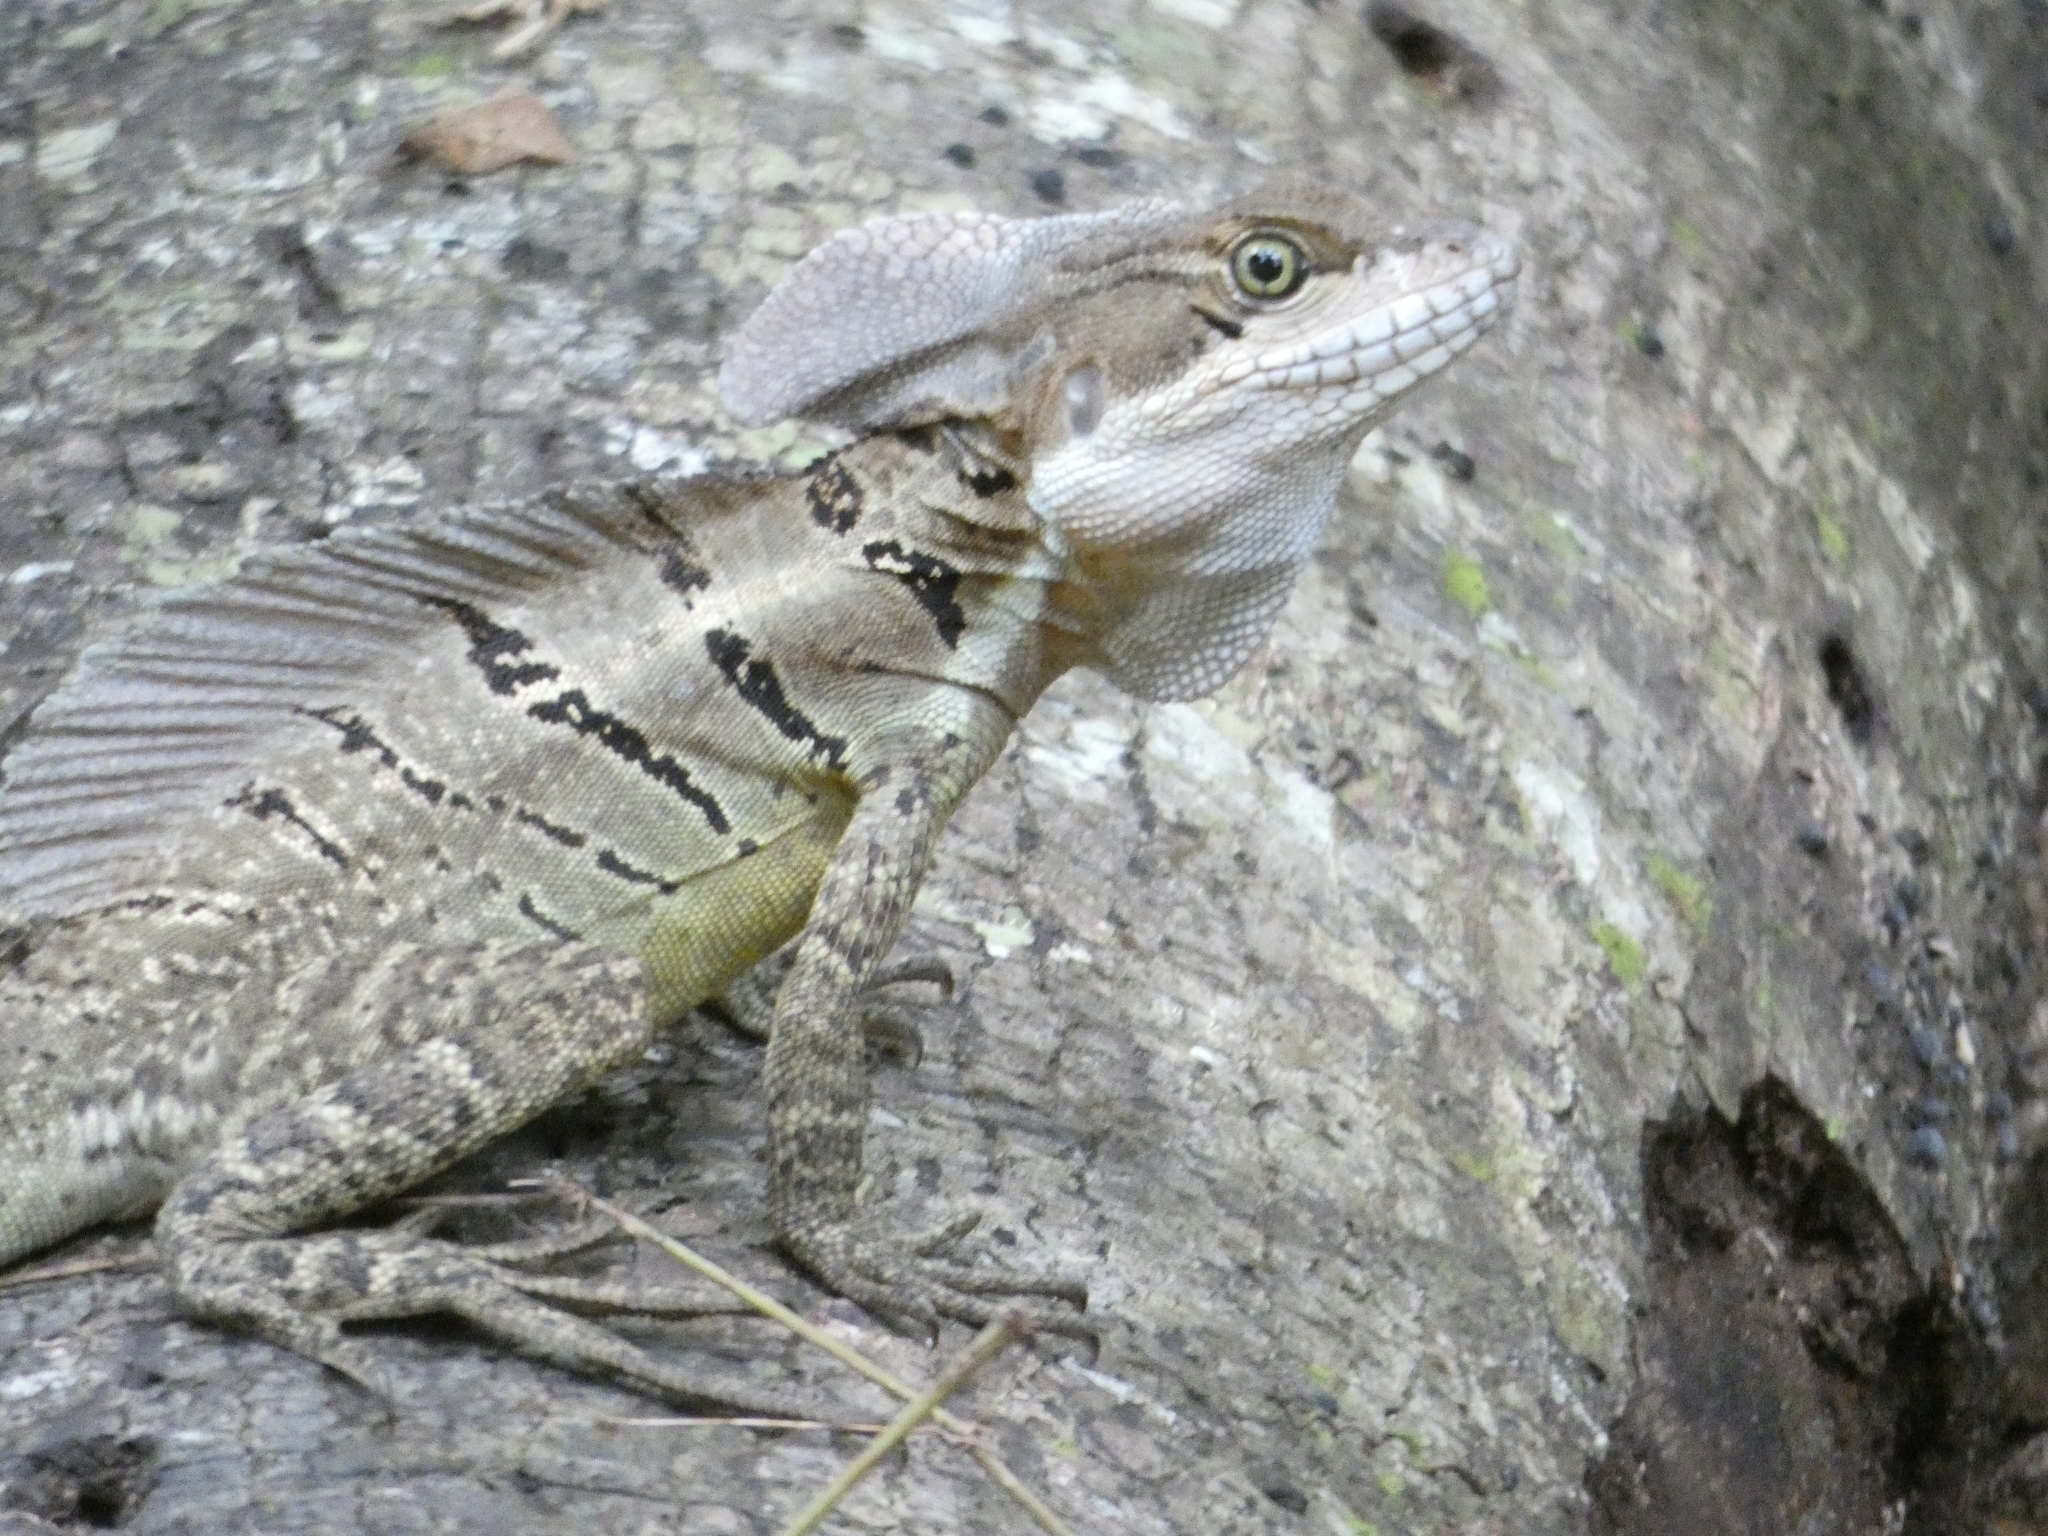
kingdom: Animalia
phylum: Chordata
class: Squamata
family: Corytophanidae
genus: Basiliscus
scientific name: Basiliscus basiliscus
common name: Common basilisk
